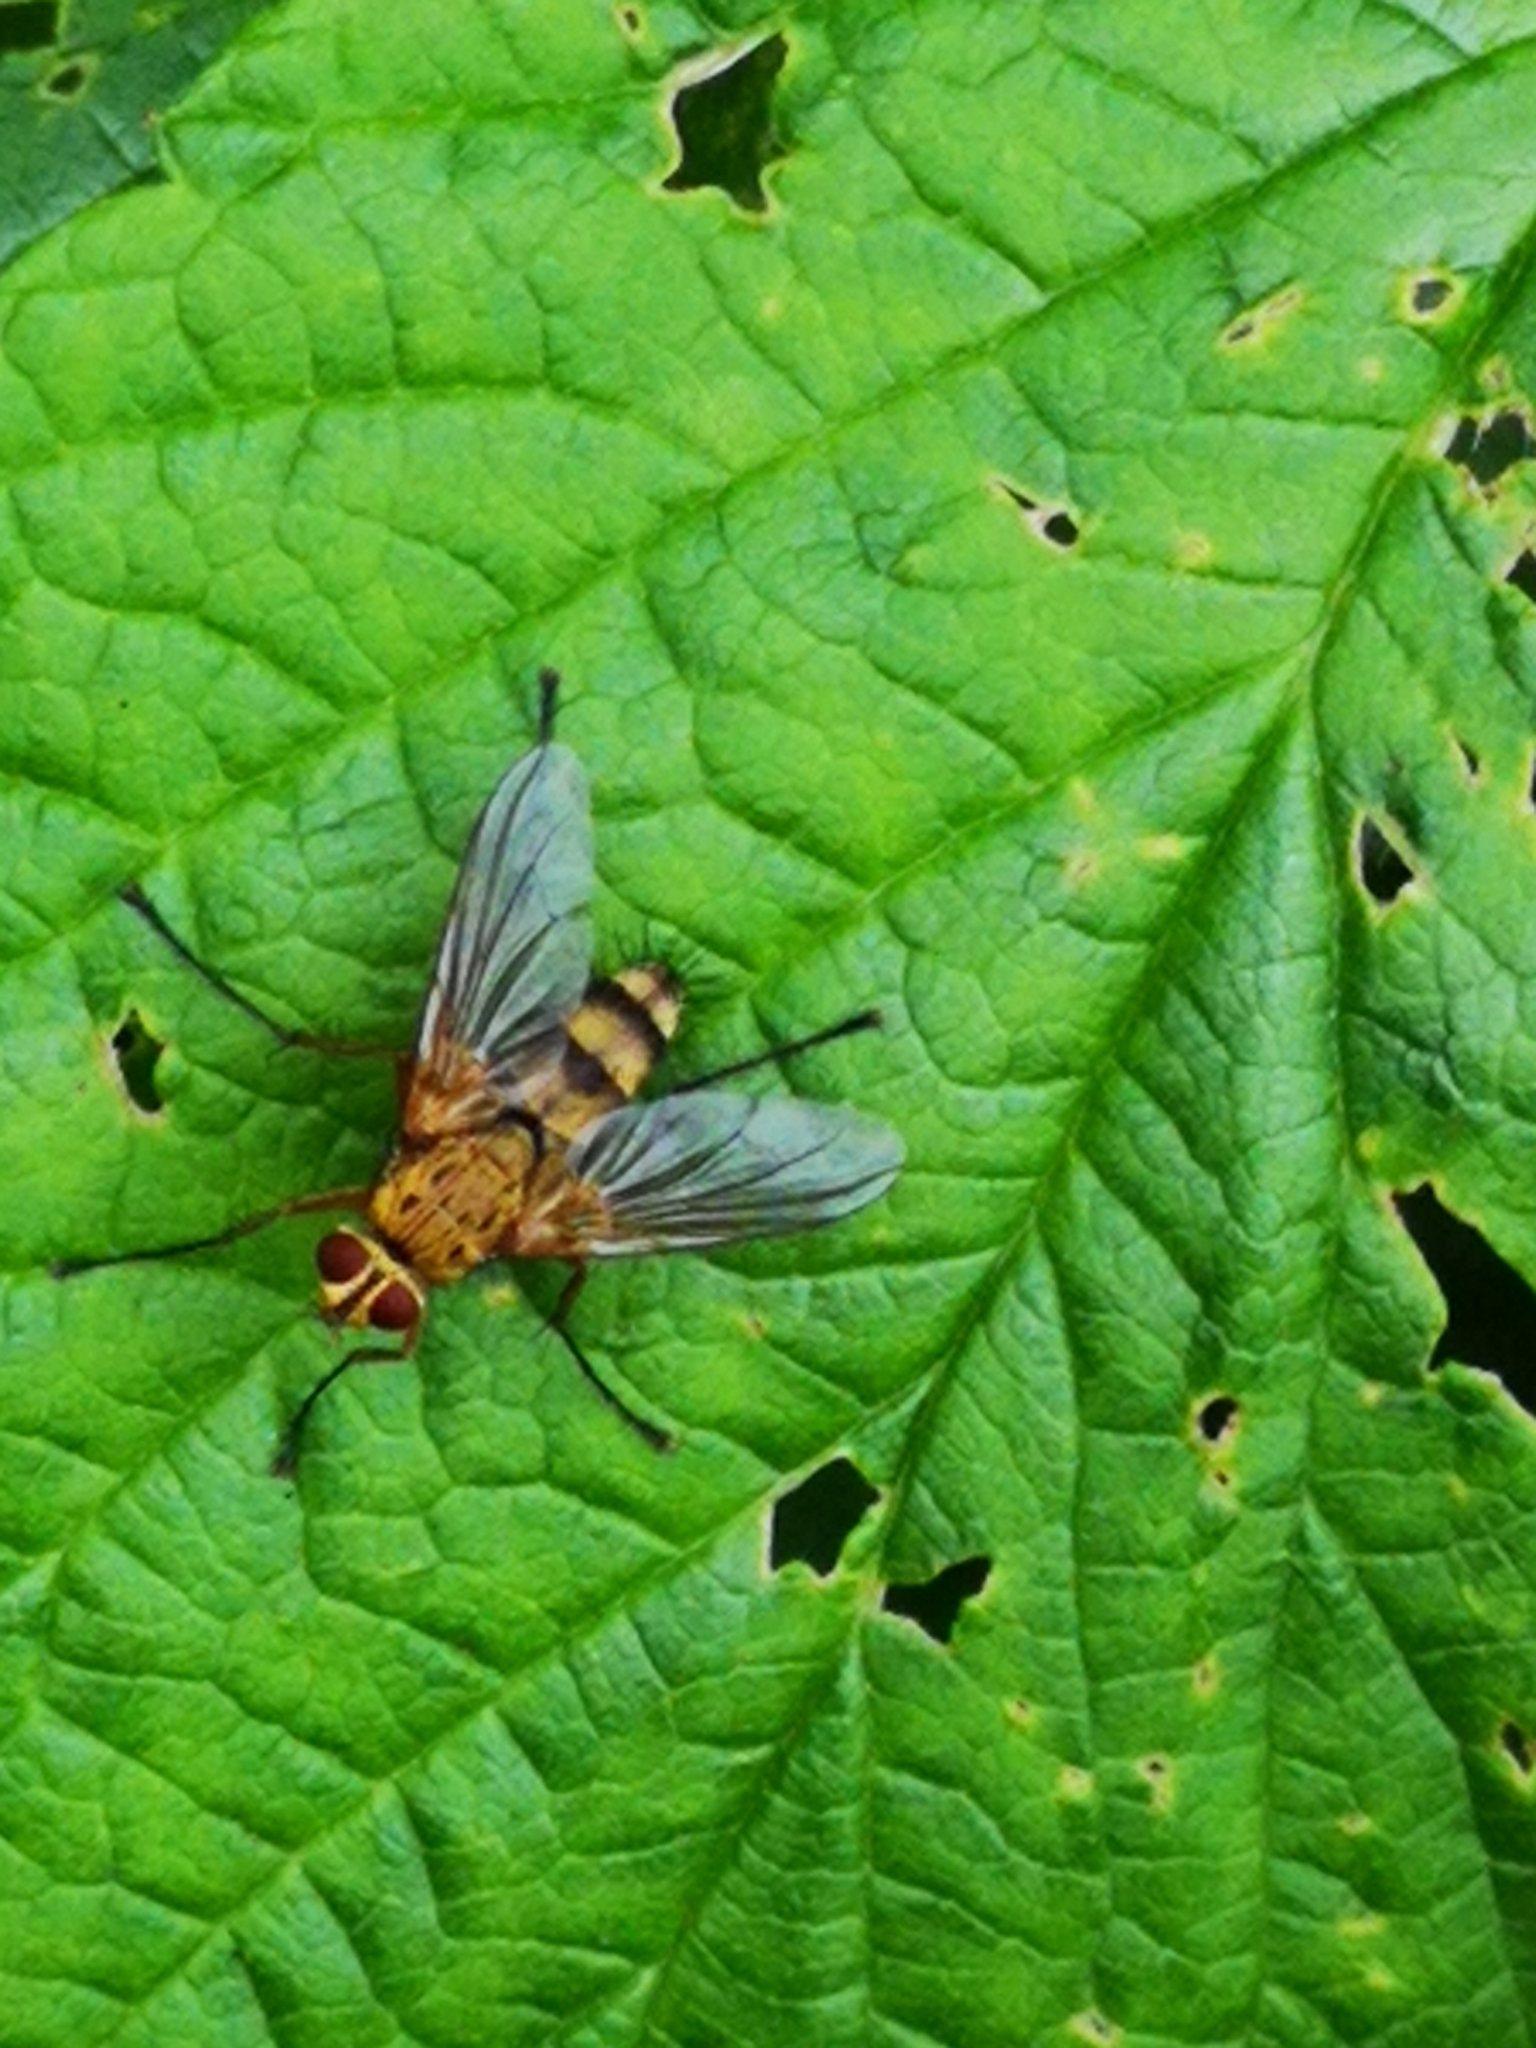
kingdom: Animalia
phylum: Arthropoda
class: Insecta
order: Diptera
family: Tachinidae
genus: Dexiosoma
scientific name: Dexiosoma caninum
